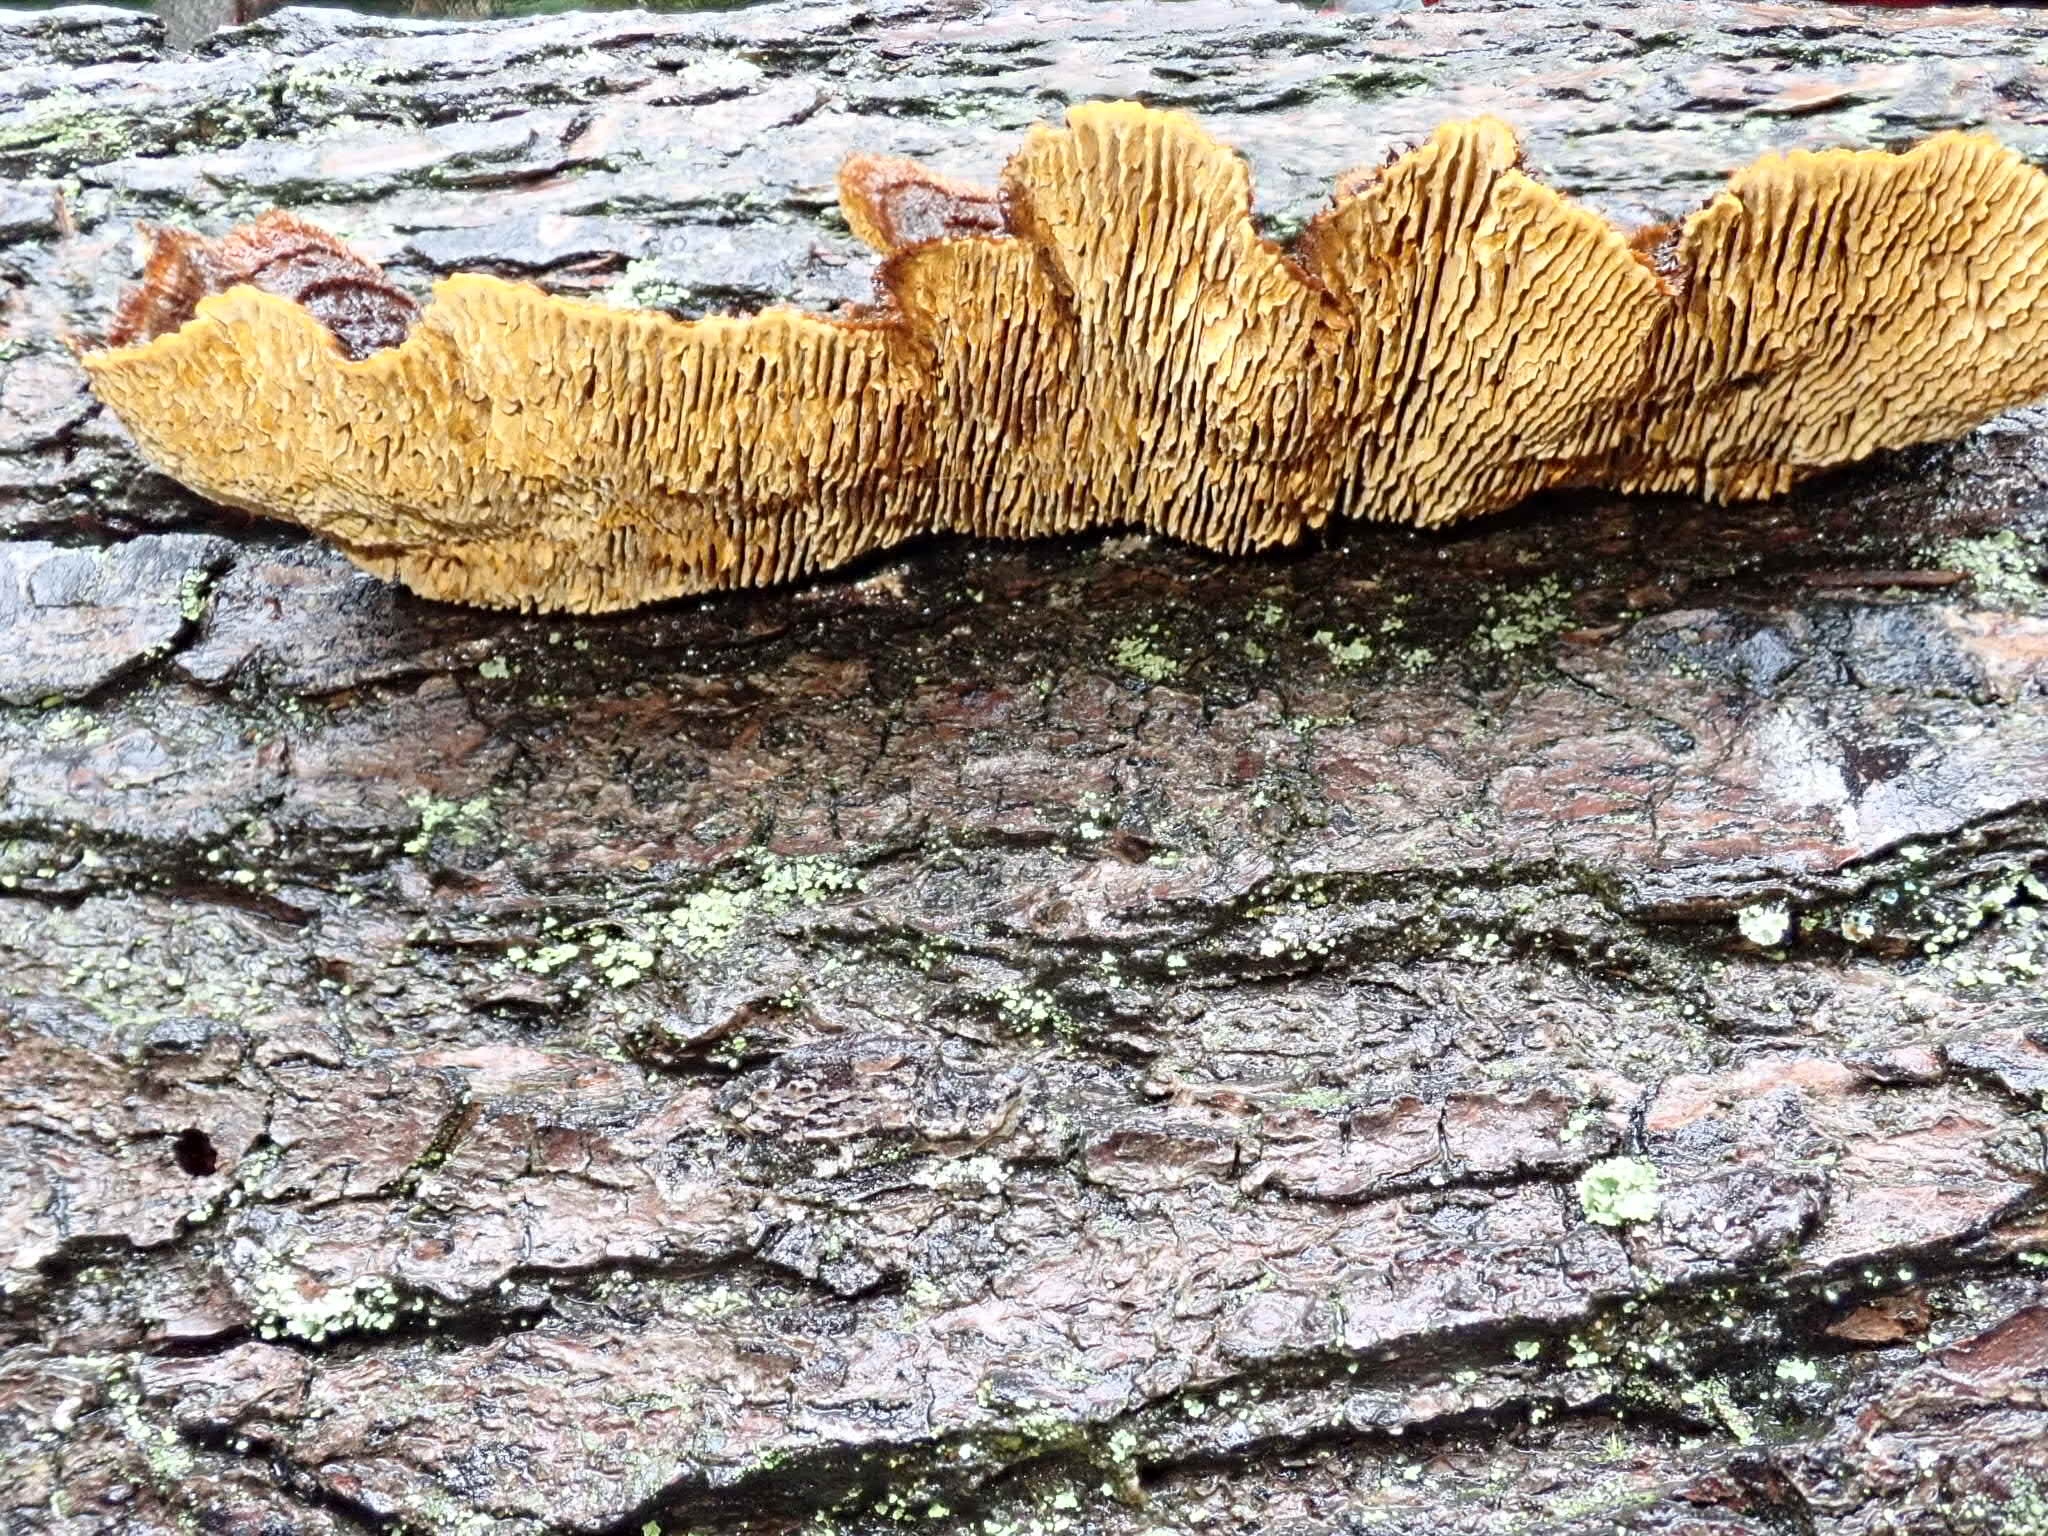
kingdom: Fungi
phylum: Basidiomycota
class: Agaricomycetes
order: Gloeophyllales
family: Gloeophyllaceae
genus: Gloeophyllum
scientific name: Gloeophyllum sepiarium
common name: Conifer mazegill
